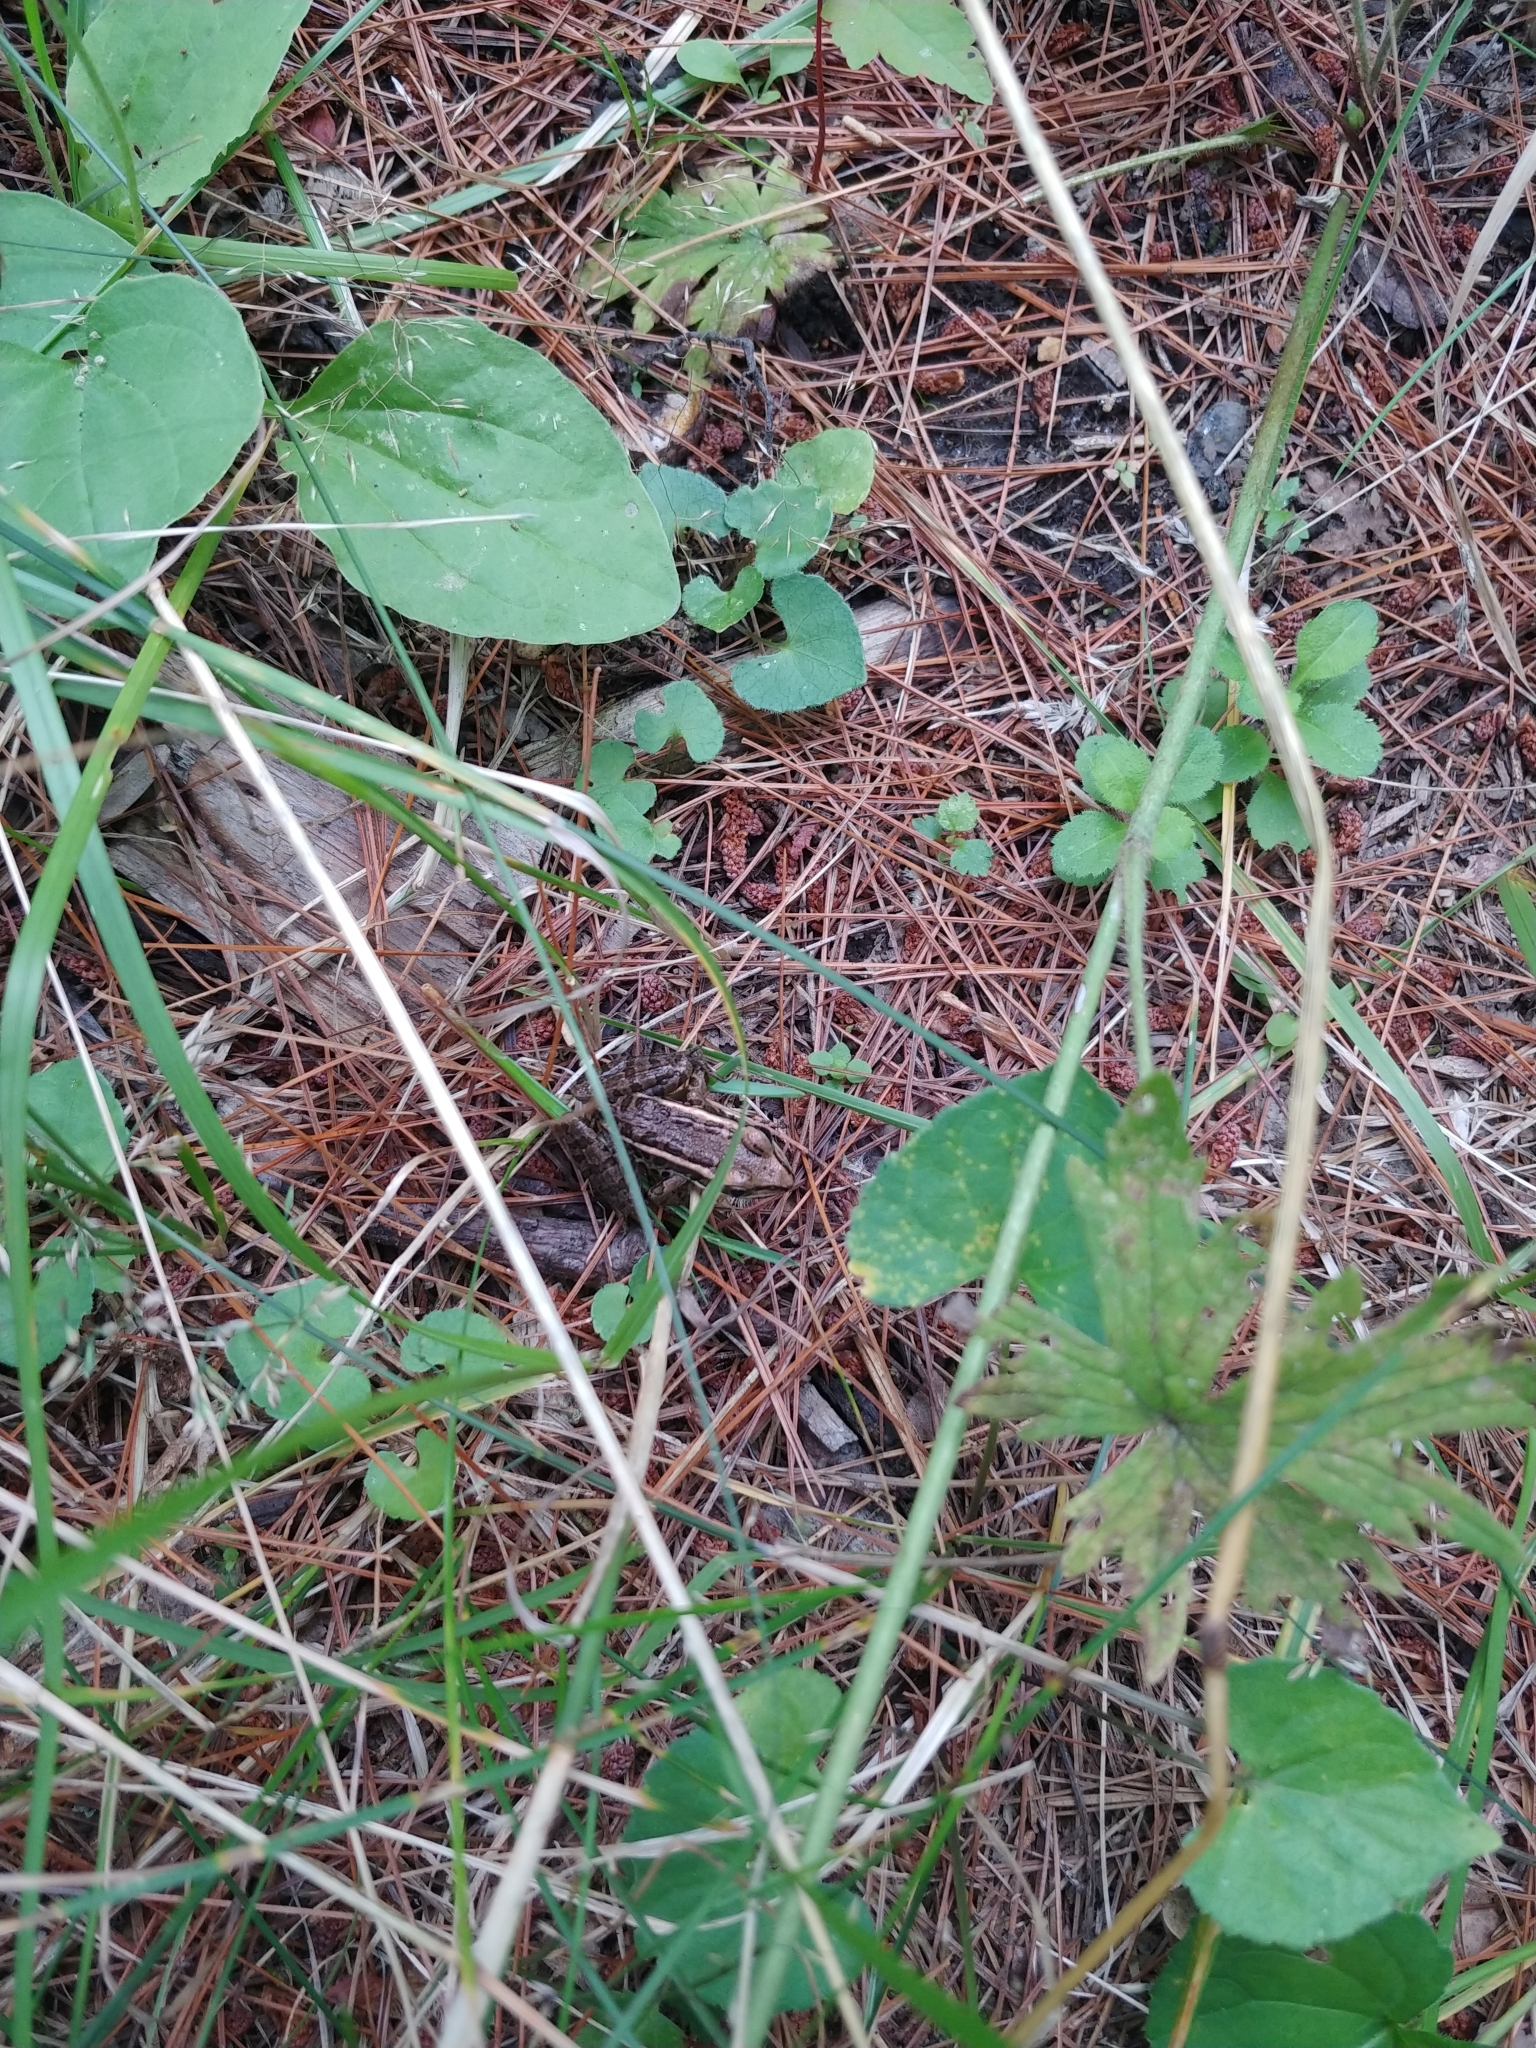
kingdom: Animalia
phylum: Chordata
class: Amphibia
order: Anura
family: Ranidae
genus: Lithobates
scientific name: Lithobates palustris
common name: Pickerel frog
